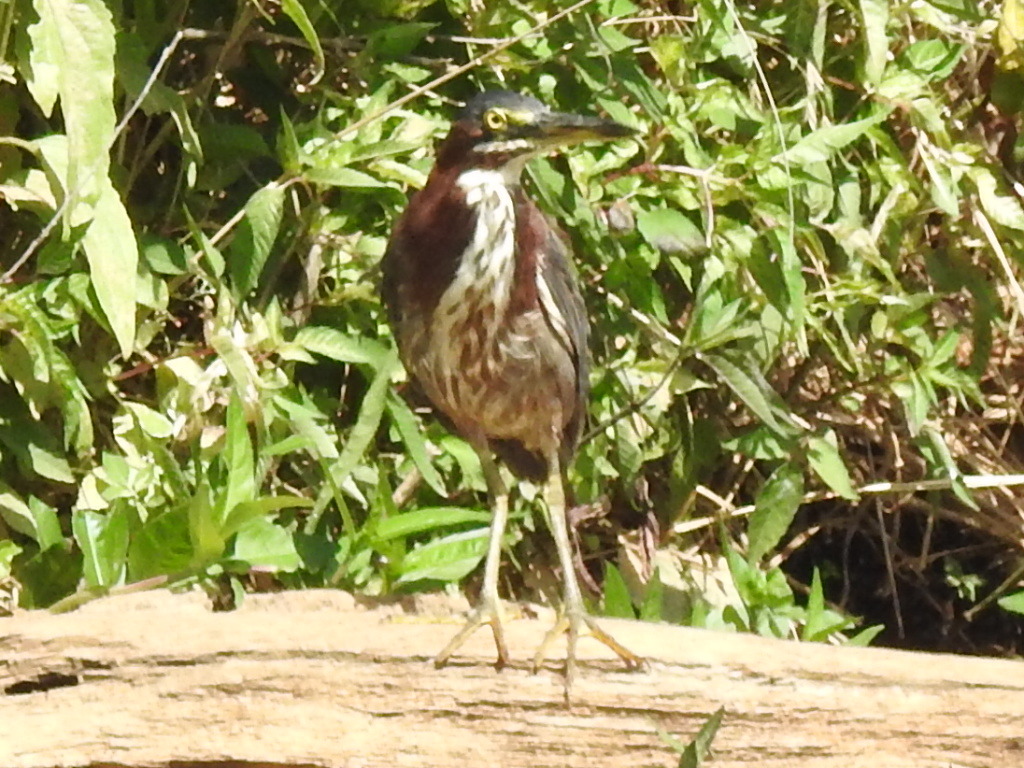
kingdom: Animalia
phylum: Chordata
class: Aves
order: Pelecaniformes
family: Ardeidae
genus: Butorides
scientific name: Butorides virescens
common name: Green heron
